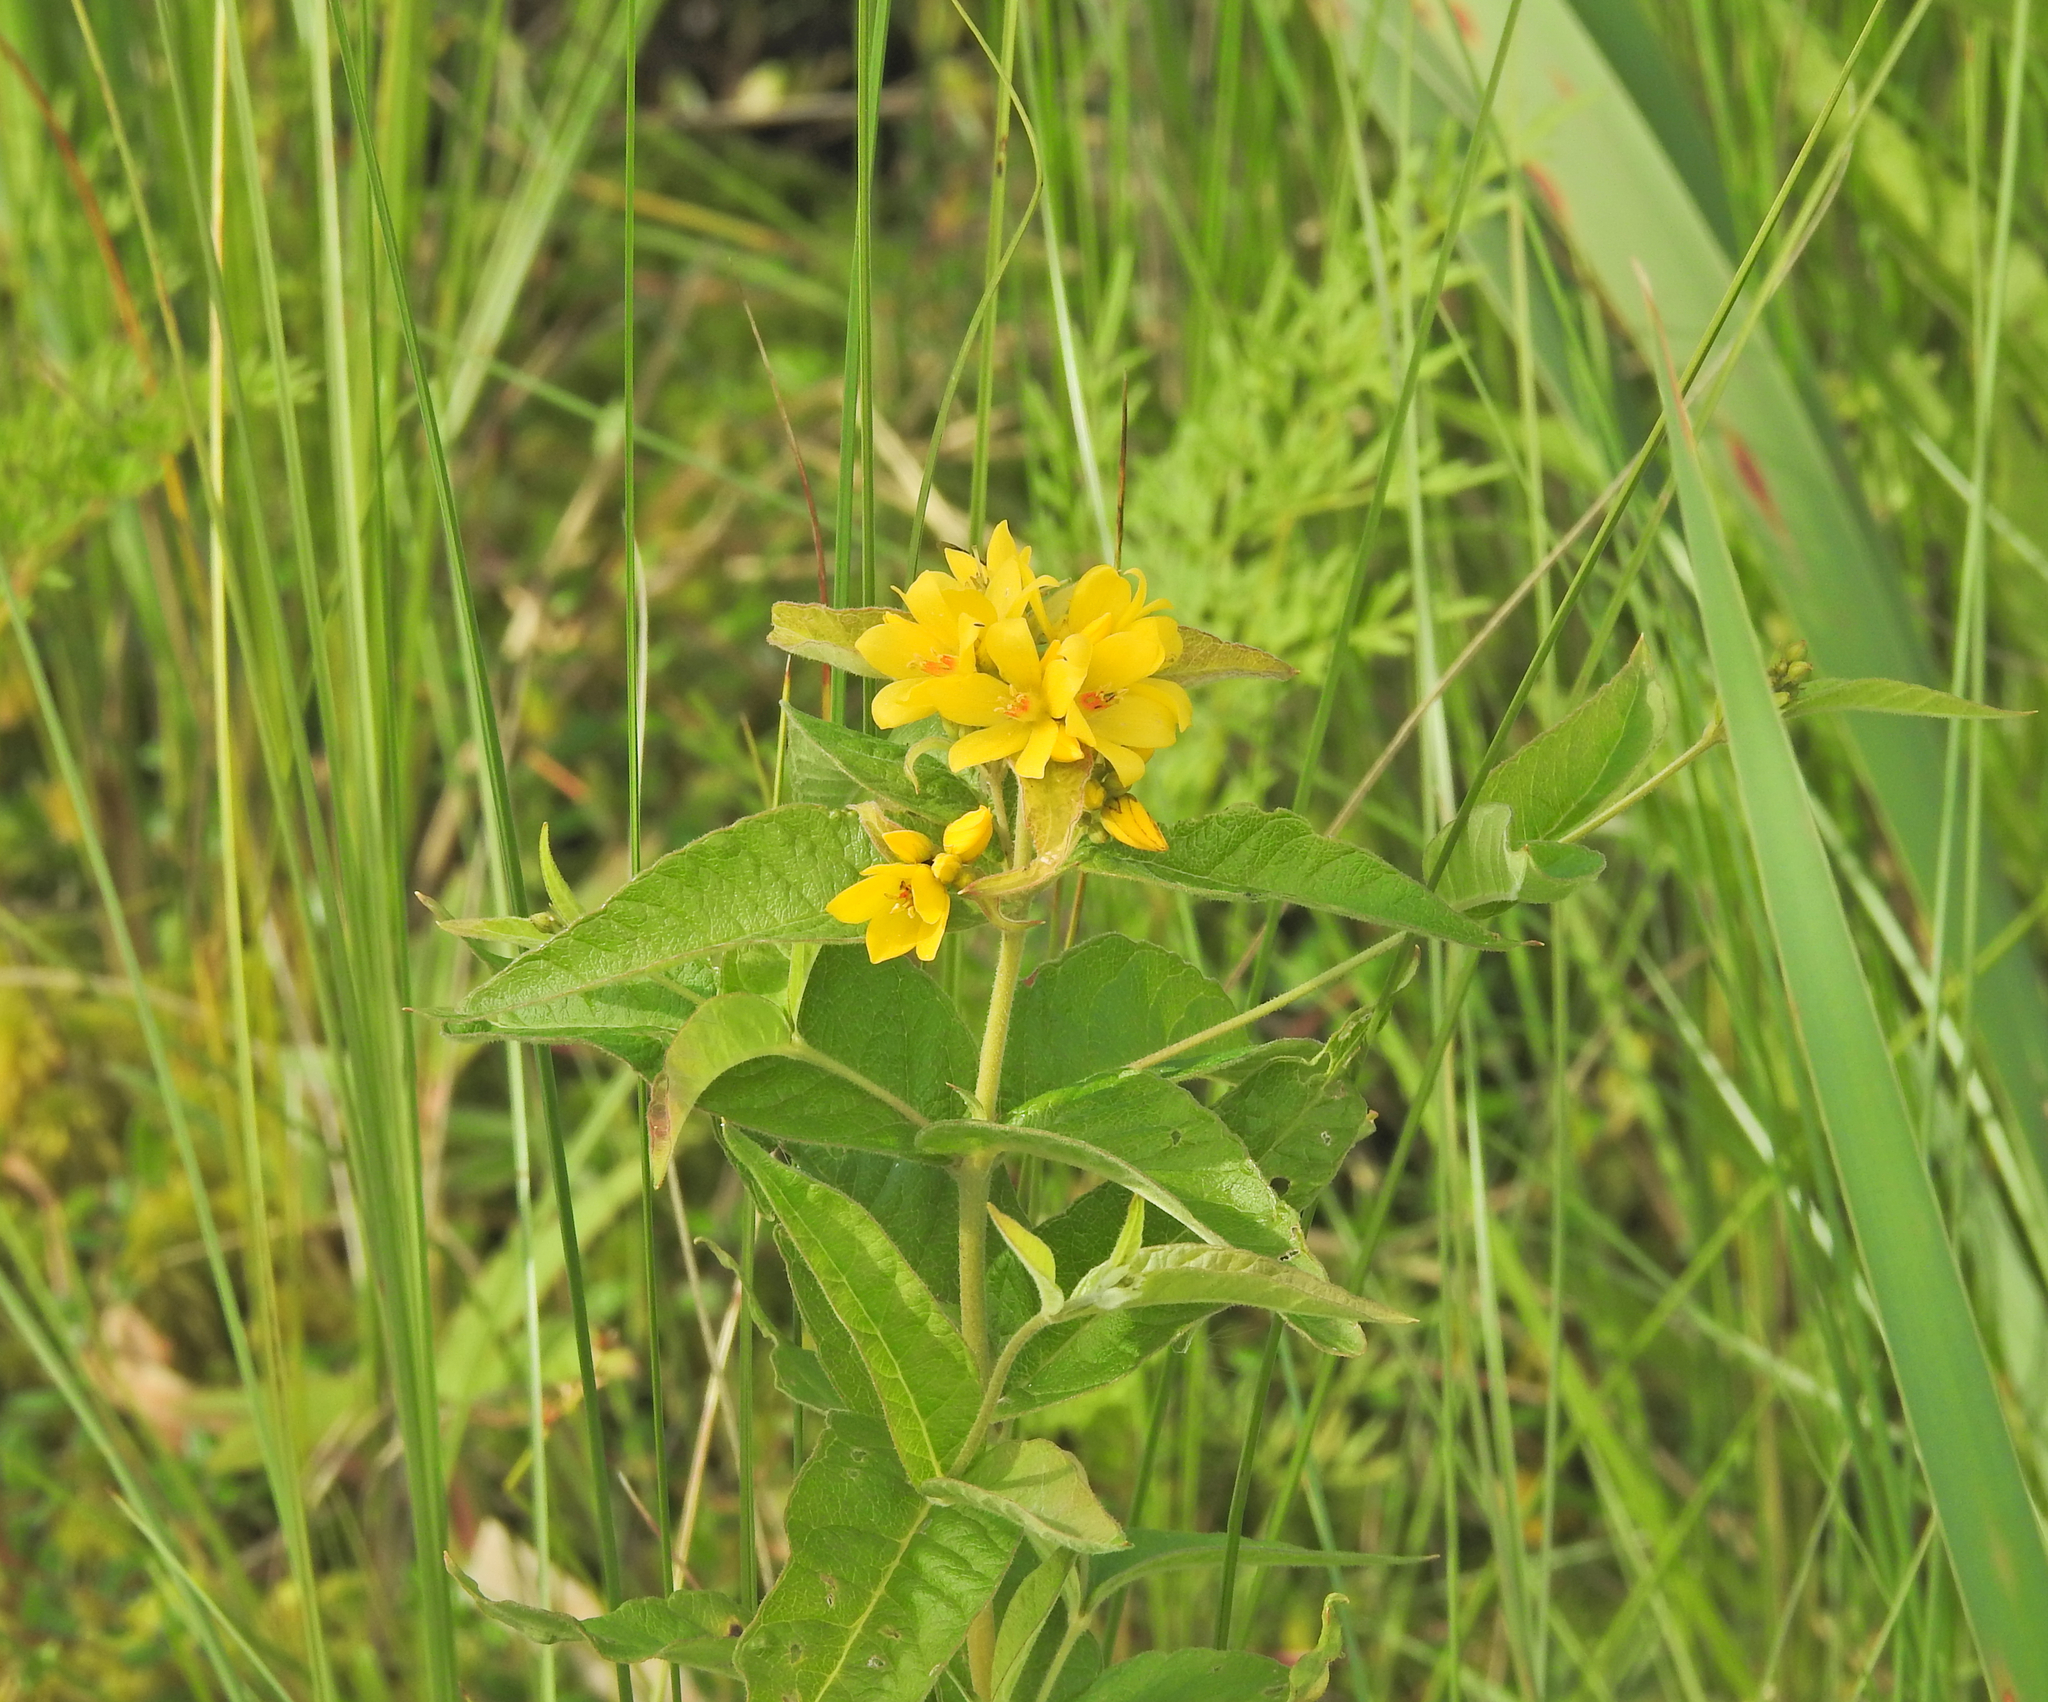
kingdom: Plantae
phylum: Tracheophyta
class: Magnoliopsida
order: Ericales
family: Primulaceae
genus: Lysimachia
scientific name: Lysimachia vulgaris
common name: Yellow loosestrife
